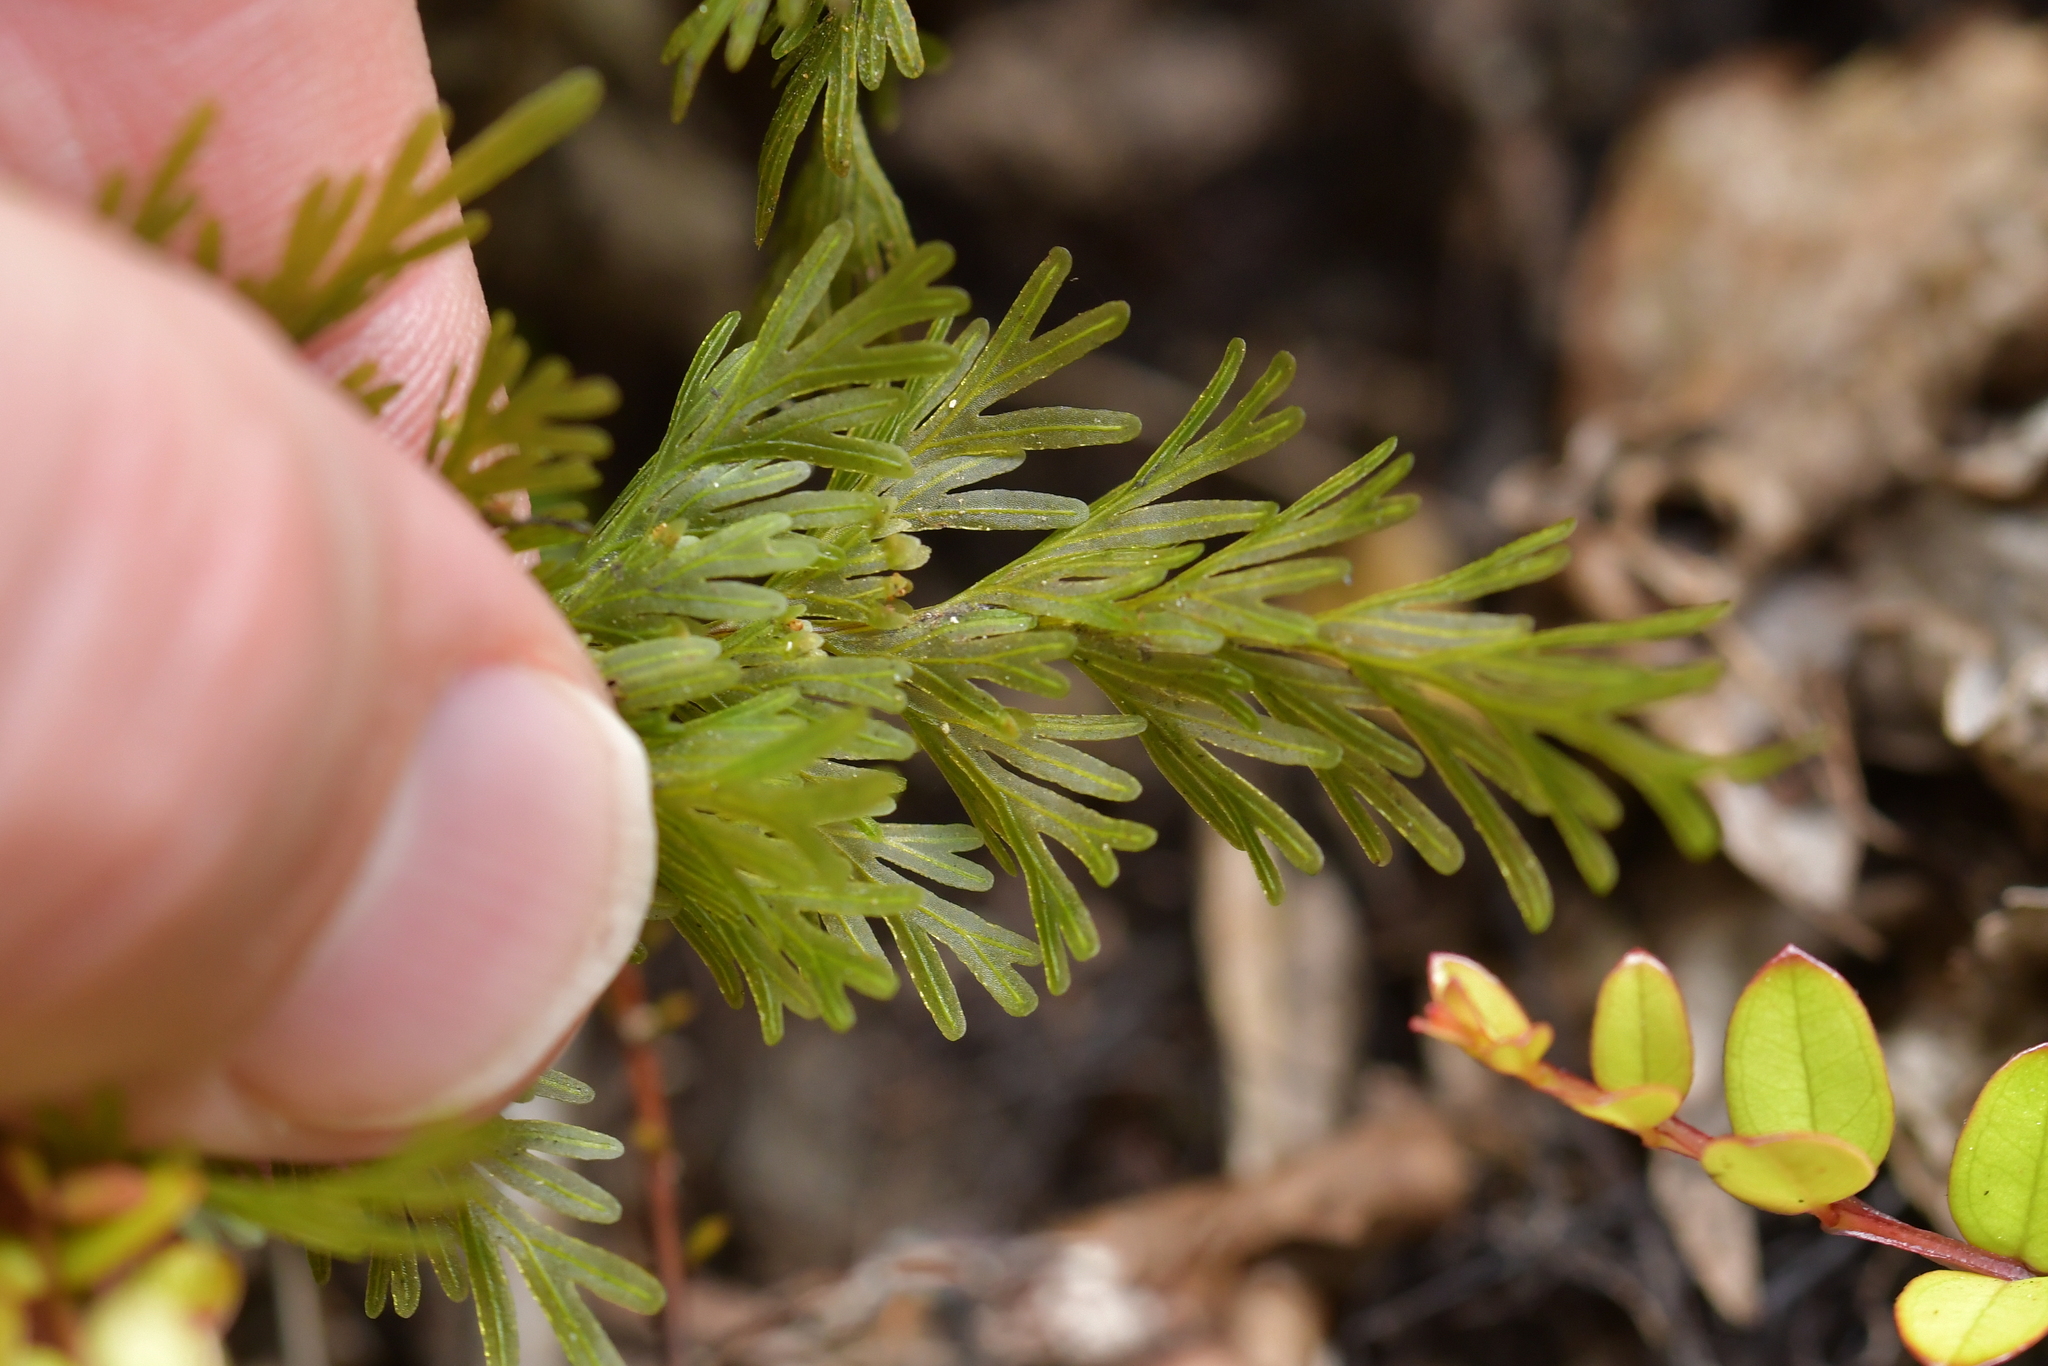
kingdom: Plantae
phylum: Tracheophyta
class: Polypodiopsida
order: Hymenophyllales
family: Hymenophyllaceae
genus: Hymenophyllum
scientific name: Hymenophyllum demissum
